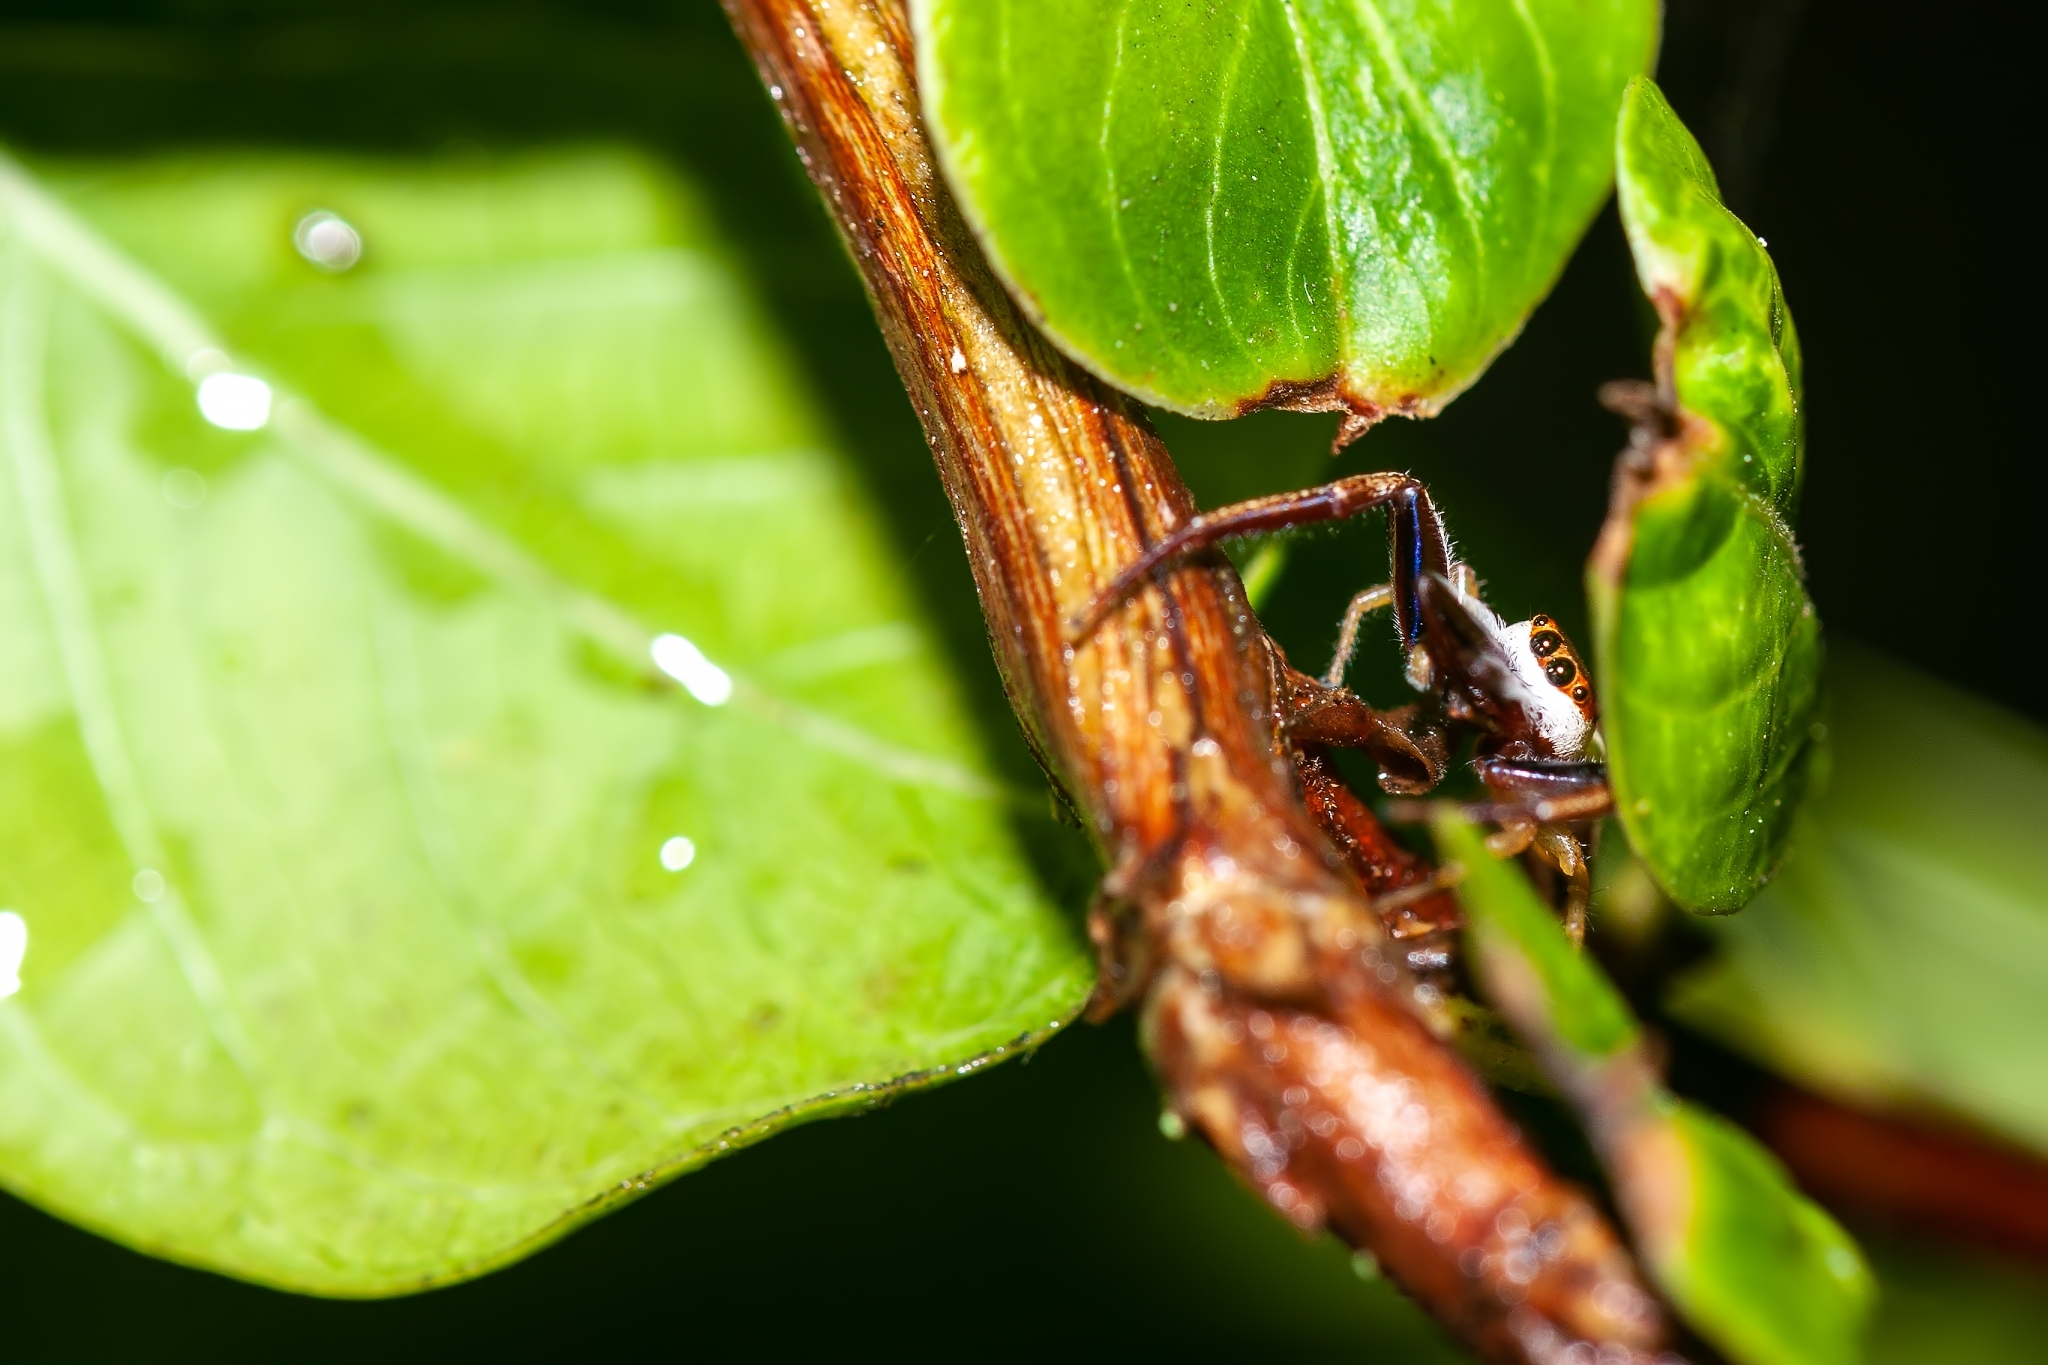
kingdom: Animalia
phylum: Arthropoda
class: Arachnida
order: Araneae
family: Salticidae
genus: Hentzia
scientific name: Hentzia palmarum
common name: Common hentz jumping spider
